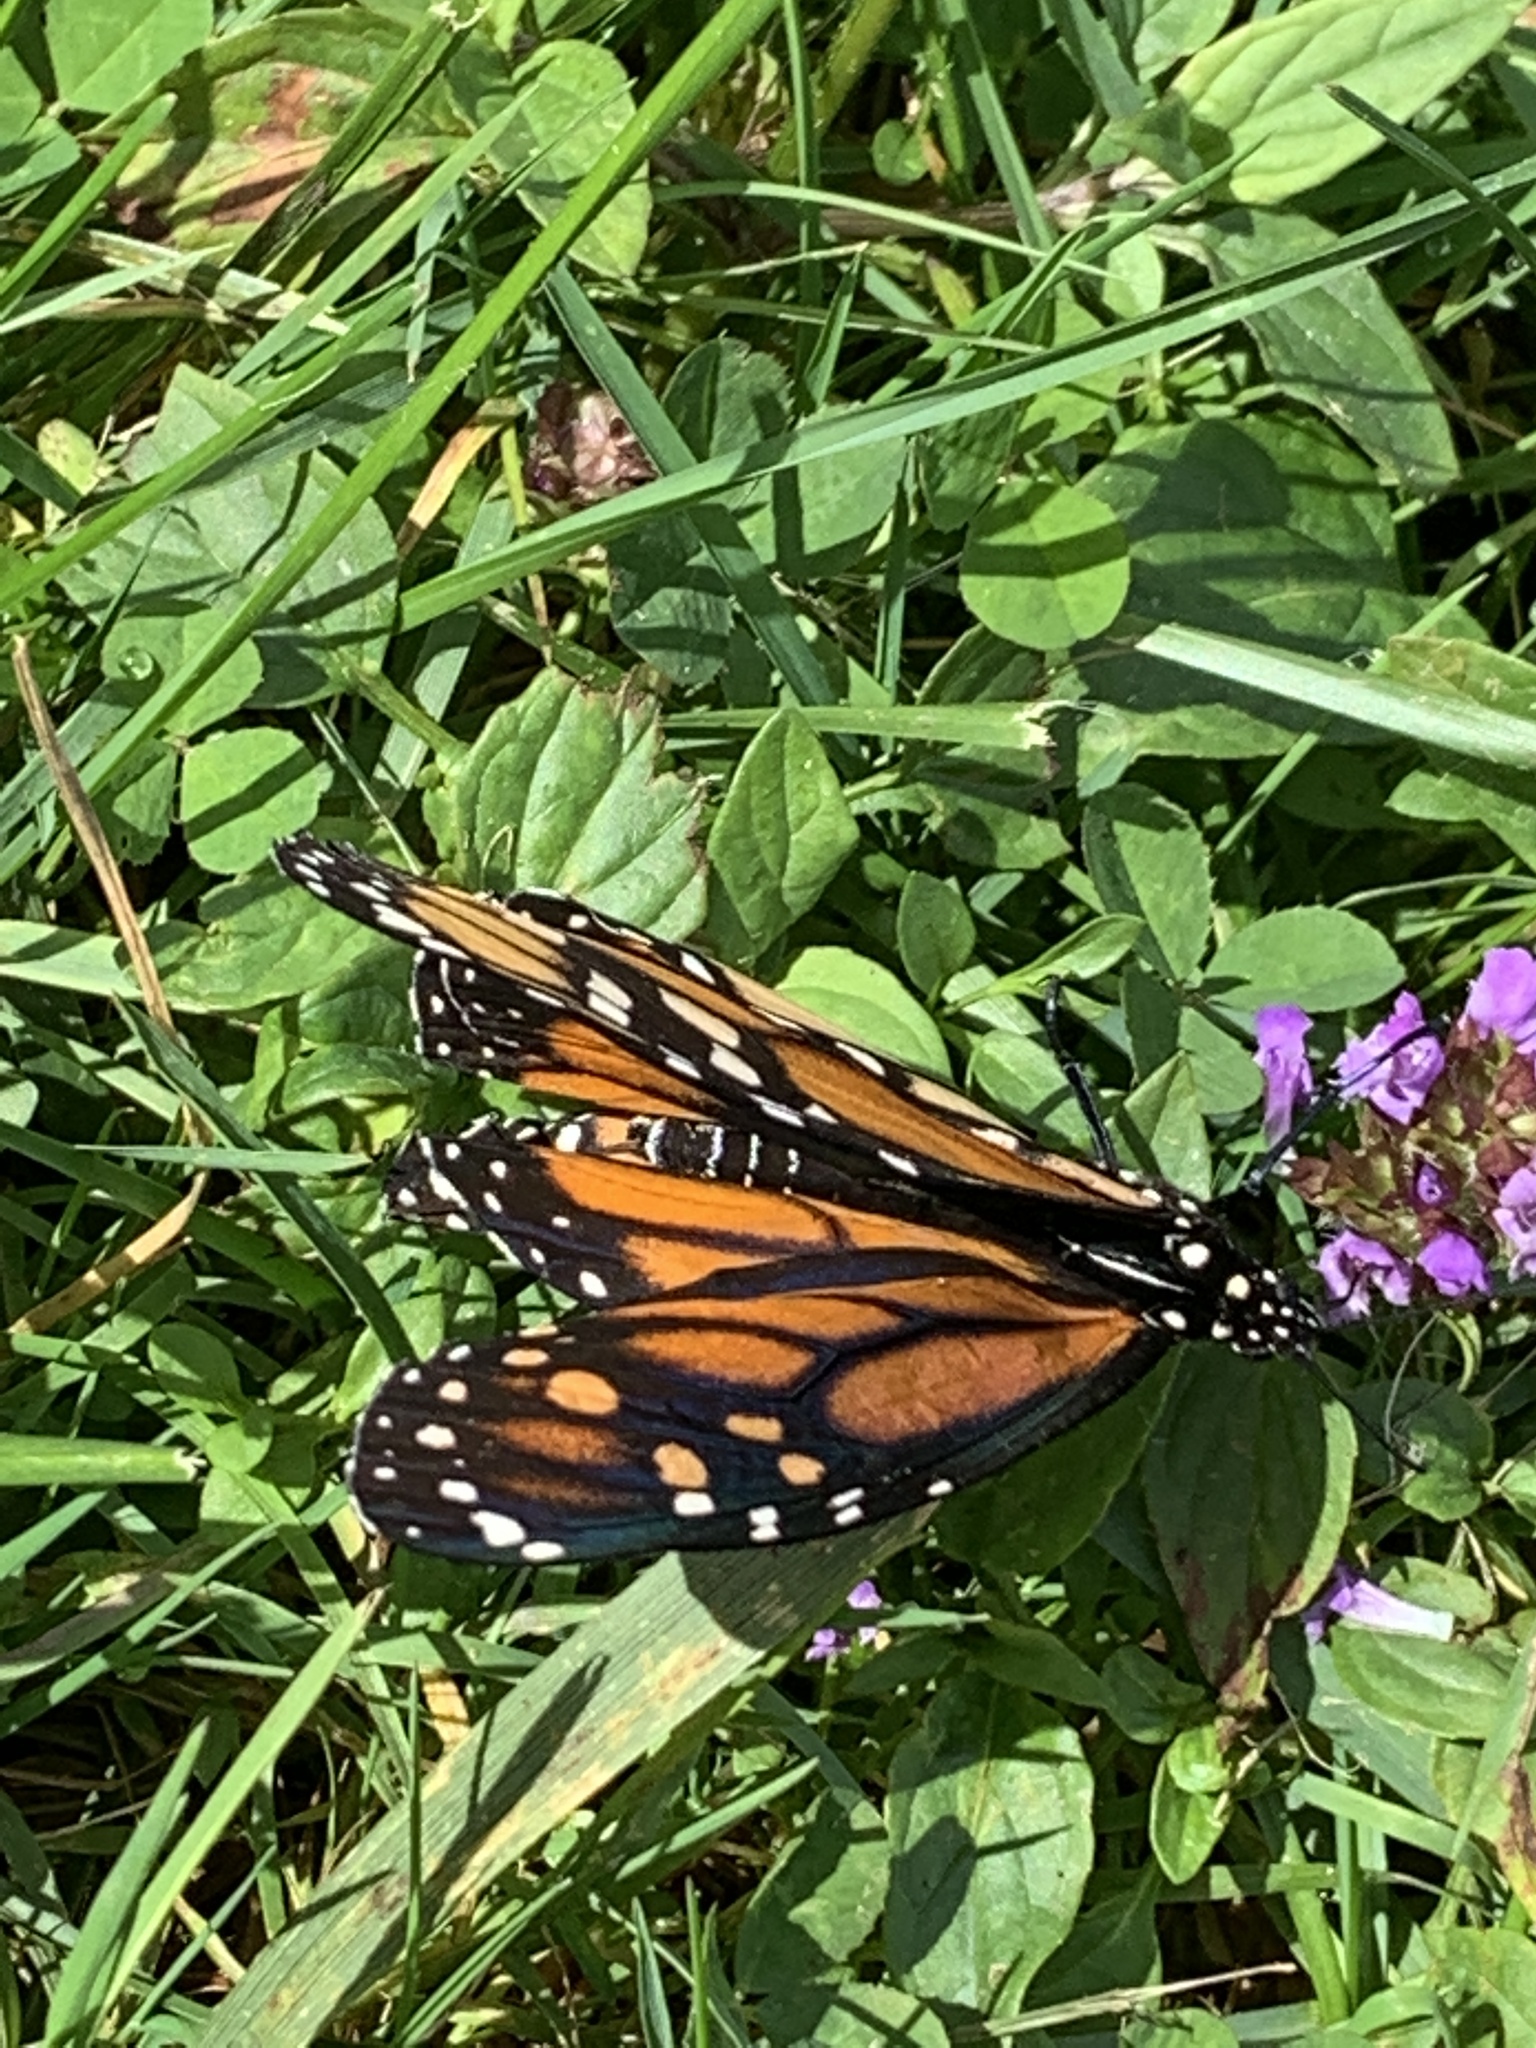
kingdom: Animalia
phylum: Arthropoda
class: Insecta
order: Lepidoptera
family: Nymphalidae
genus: Danaus
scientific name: Danaus plexippus
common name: Monarch
